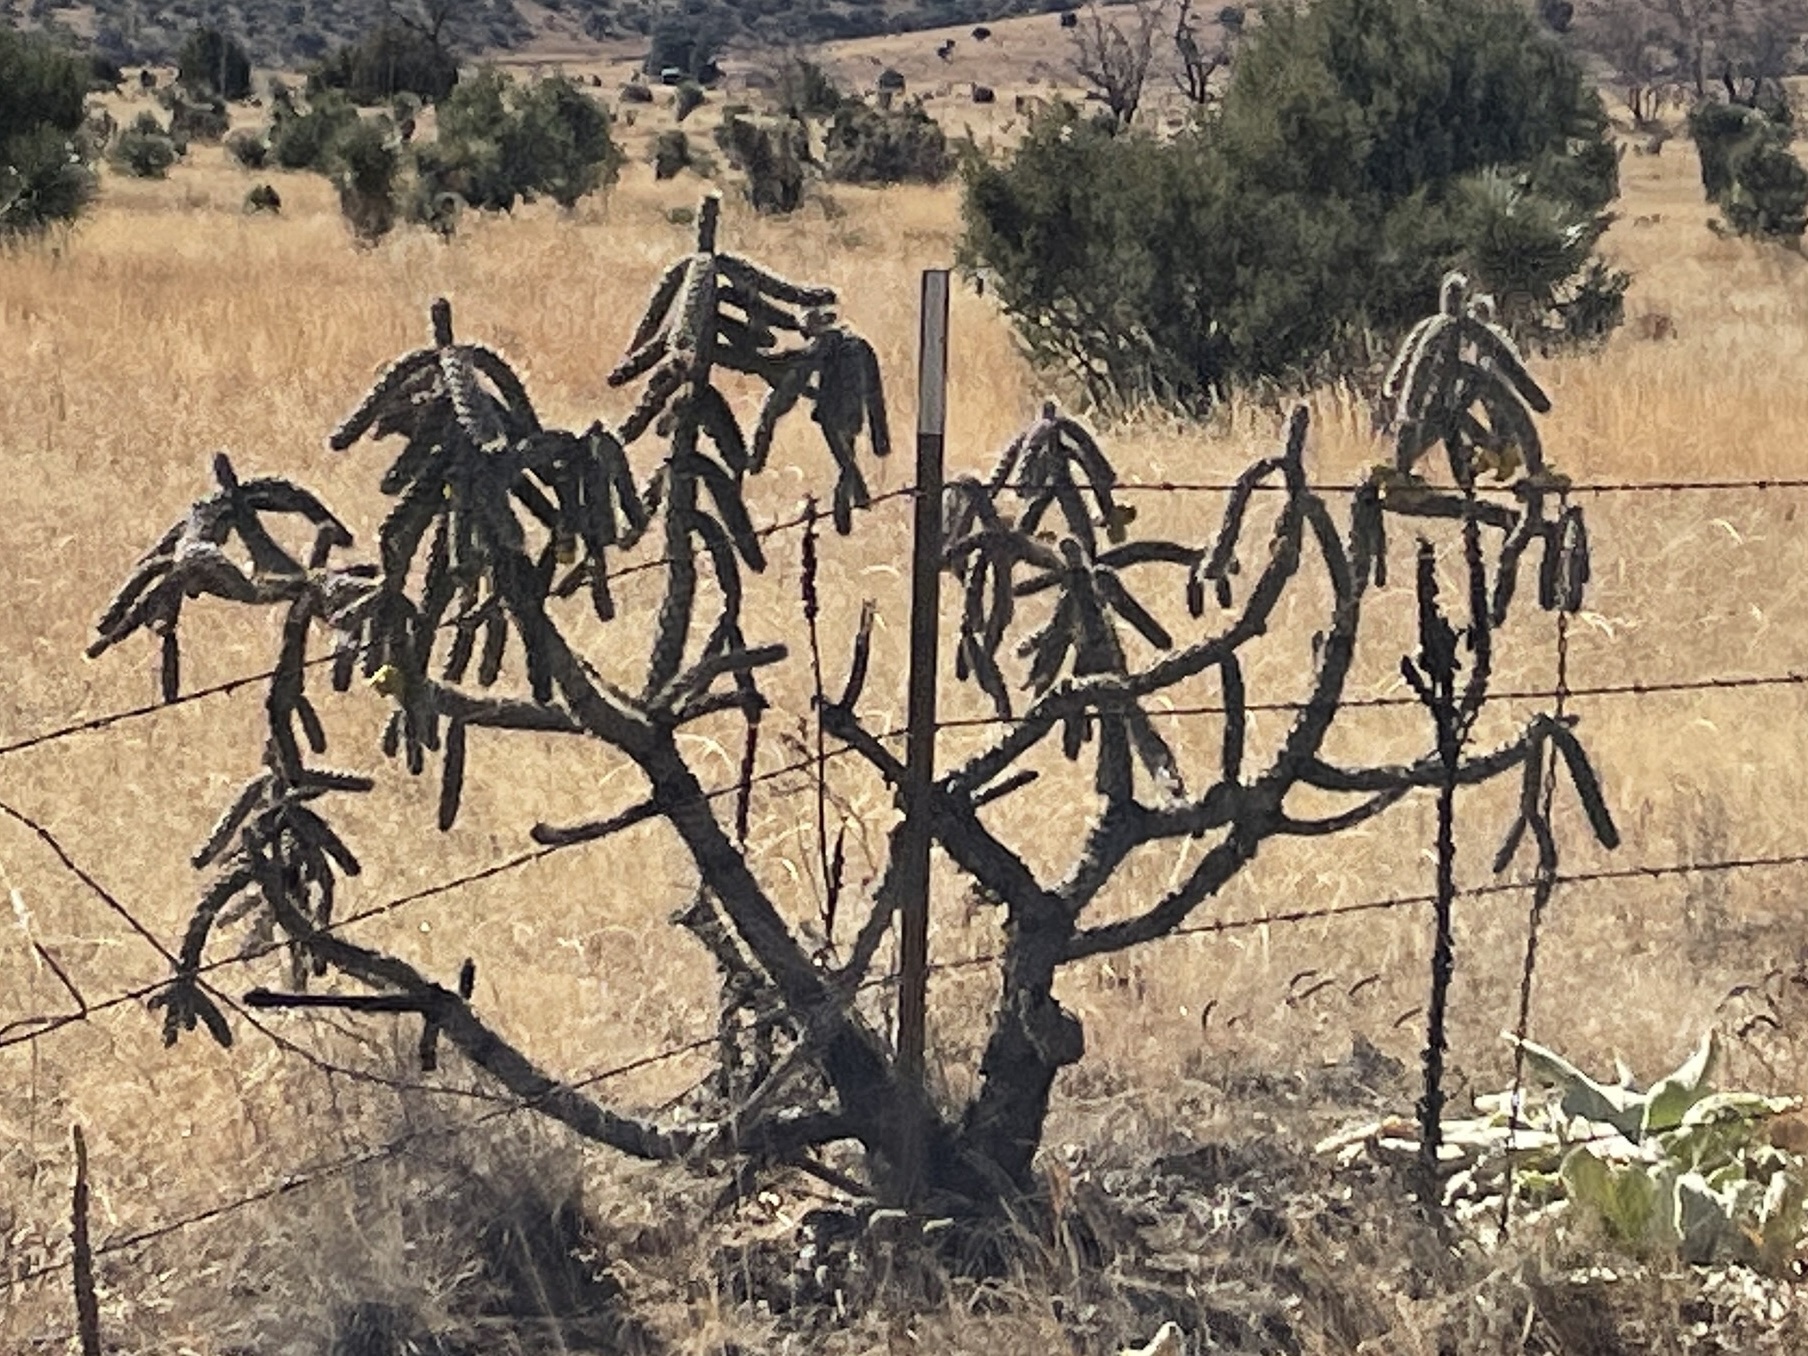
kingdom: Plantae
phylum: Tracheophyta
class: Magnoliopsida
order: Caryophyllales
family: Cactaceae
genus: Cylindropuntia
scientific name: Cylindropuntia imbricata
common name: Candelabrum cactus
